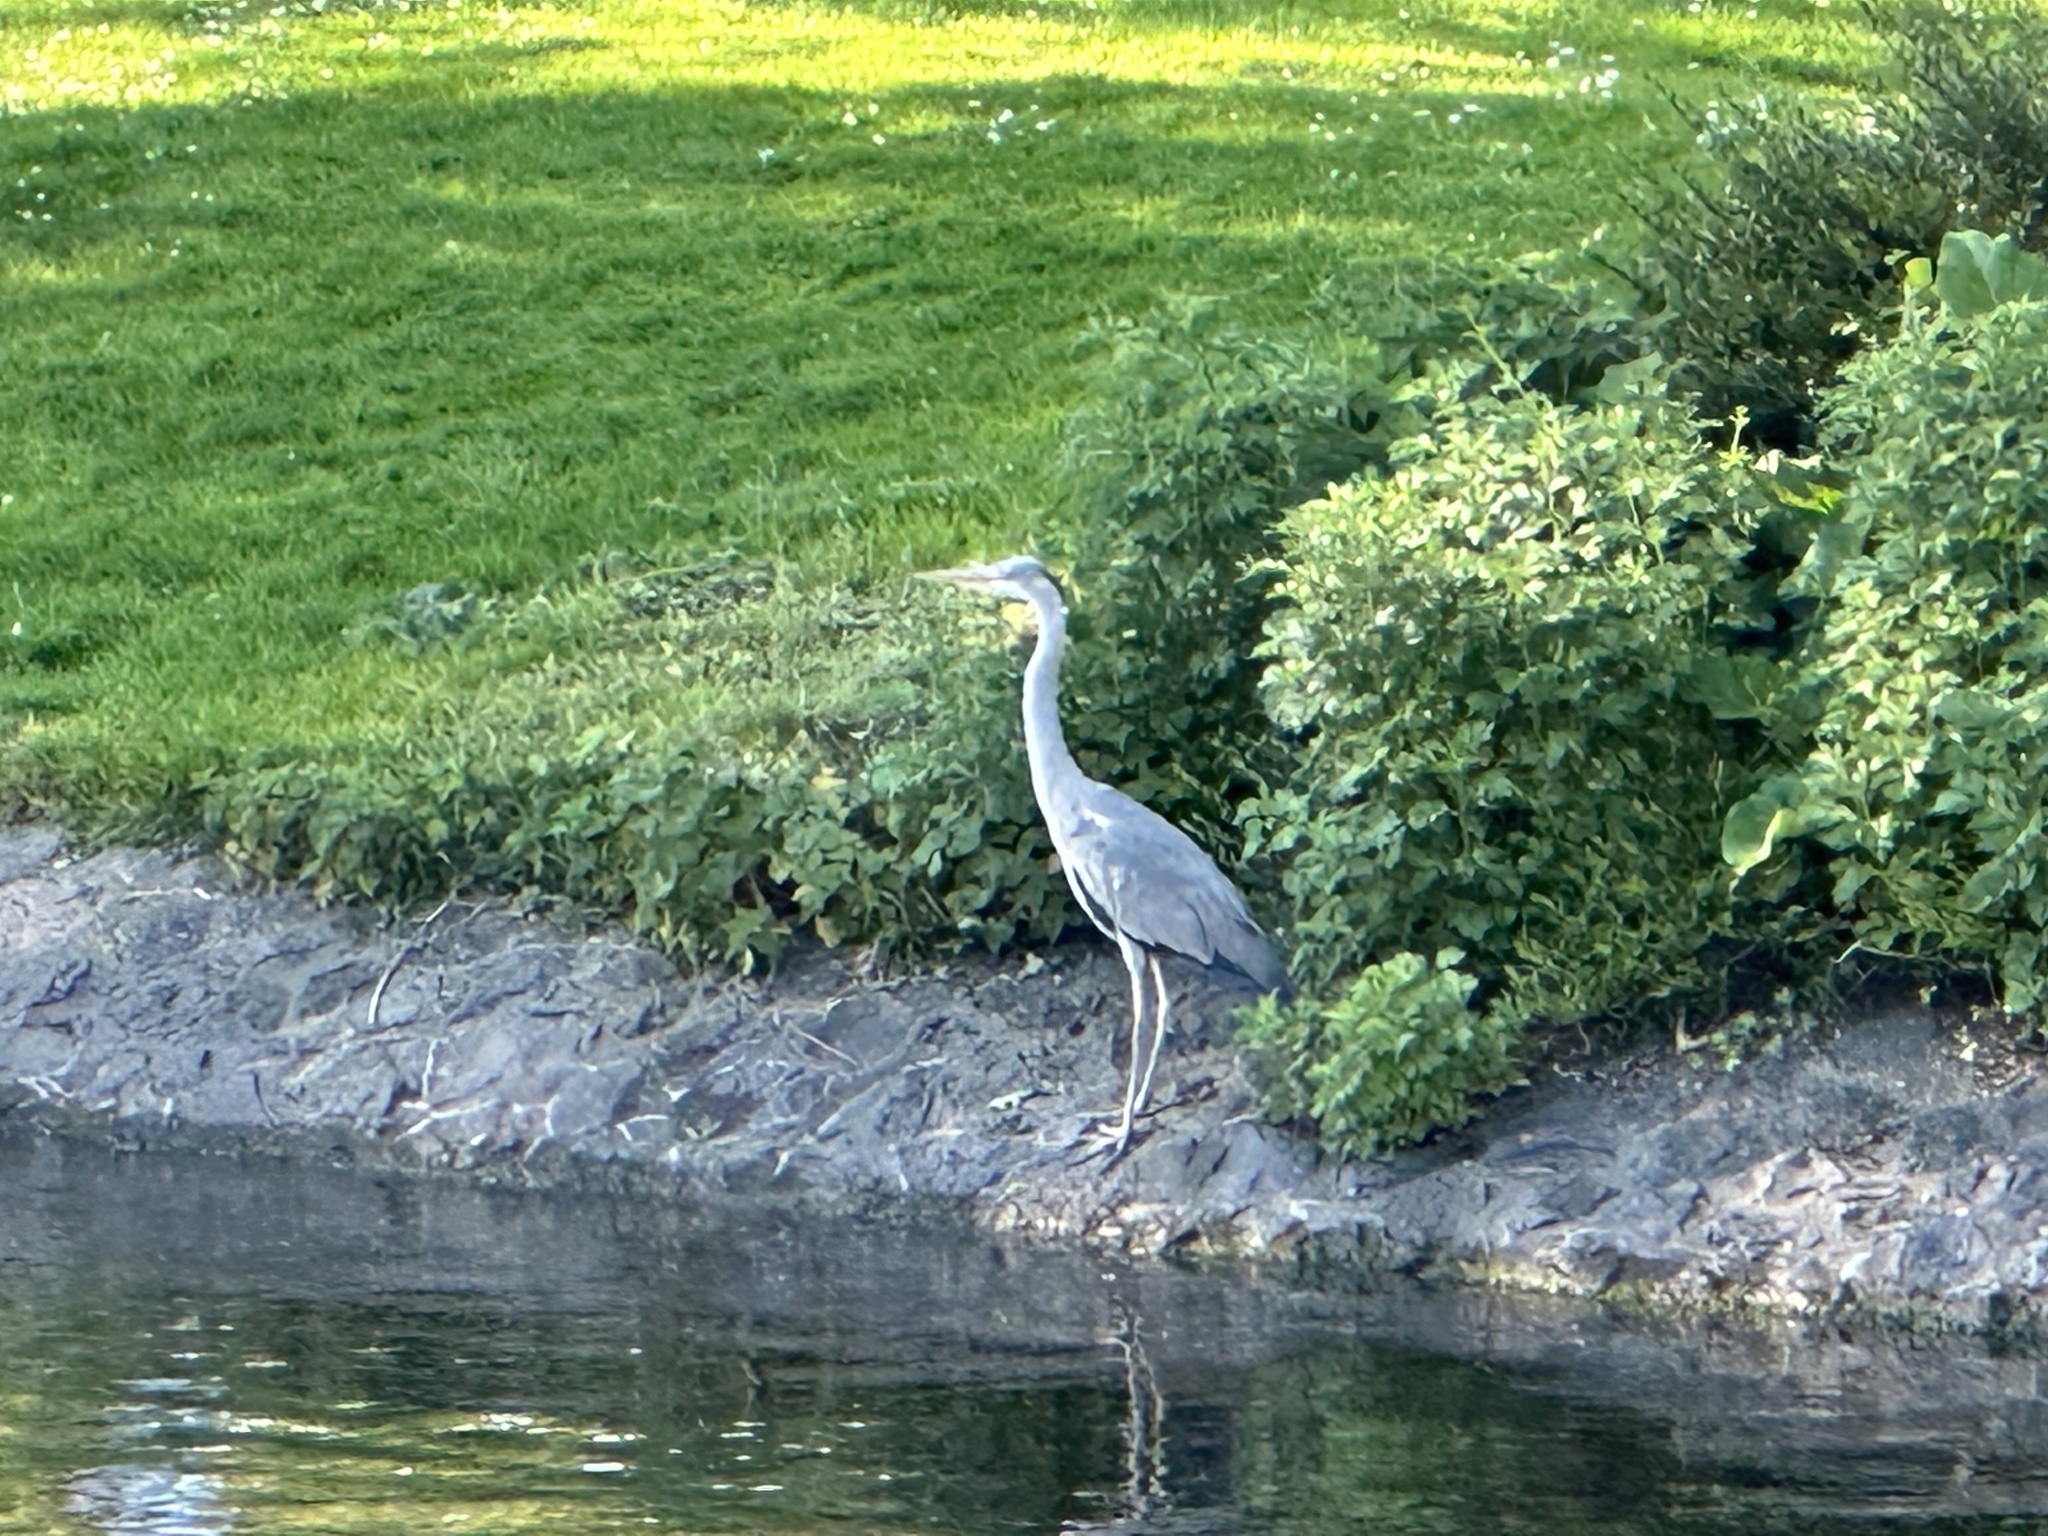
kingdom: Animalia
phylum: Chordata
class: Aves
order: Pelecaniformes
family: Ardeidae
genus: Ardea
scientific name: Ardea cinerea
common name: Grey heron
